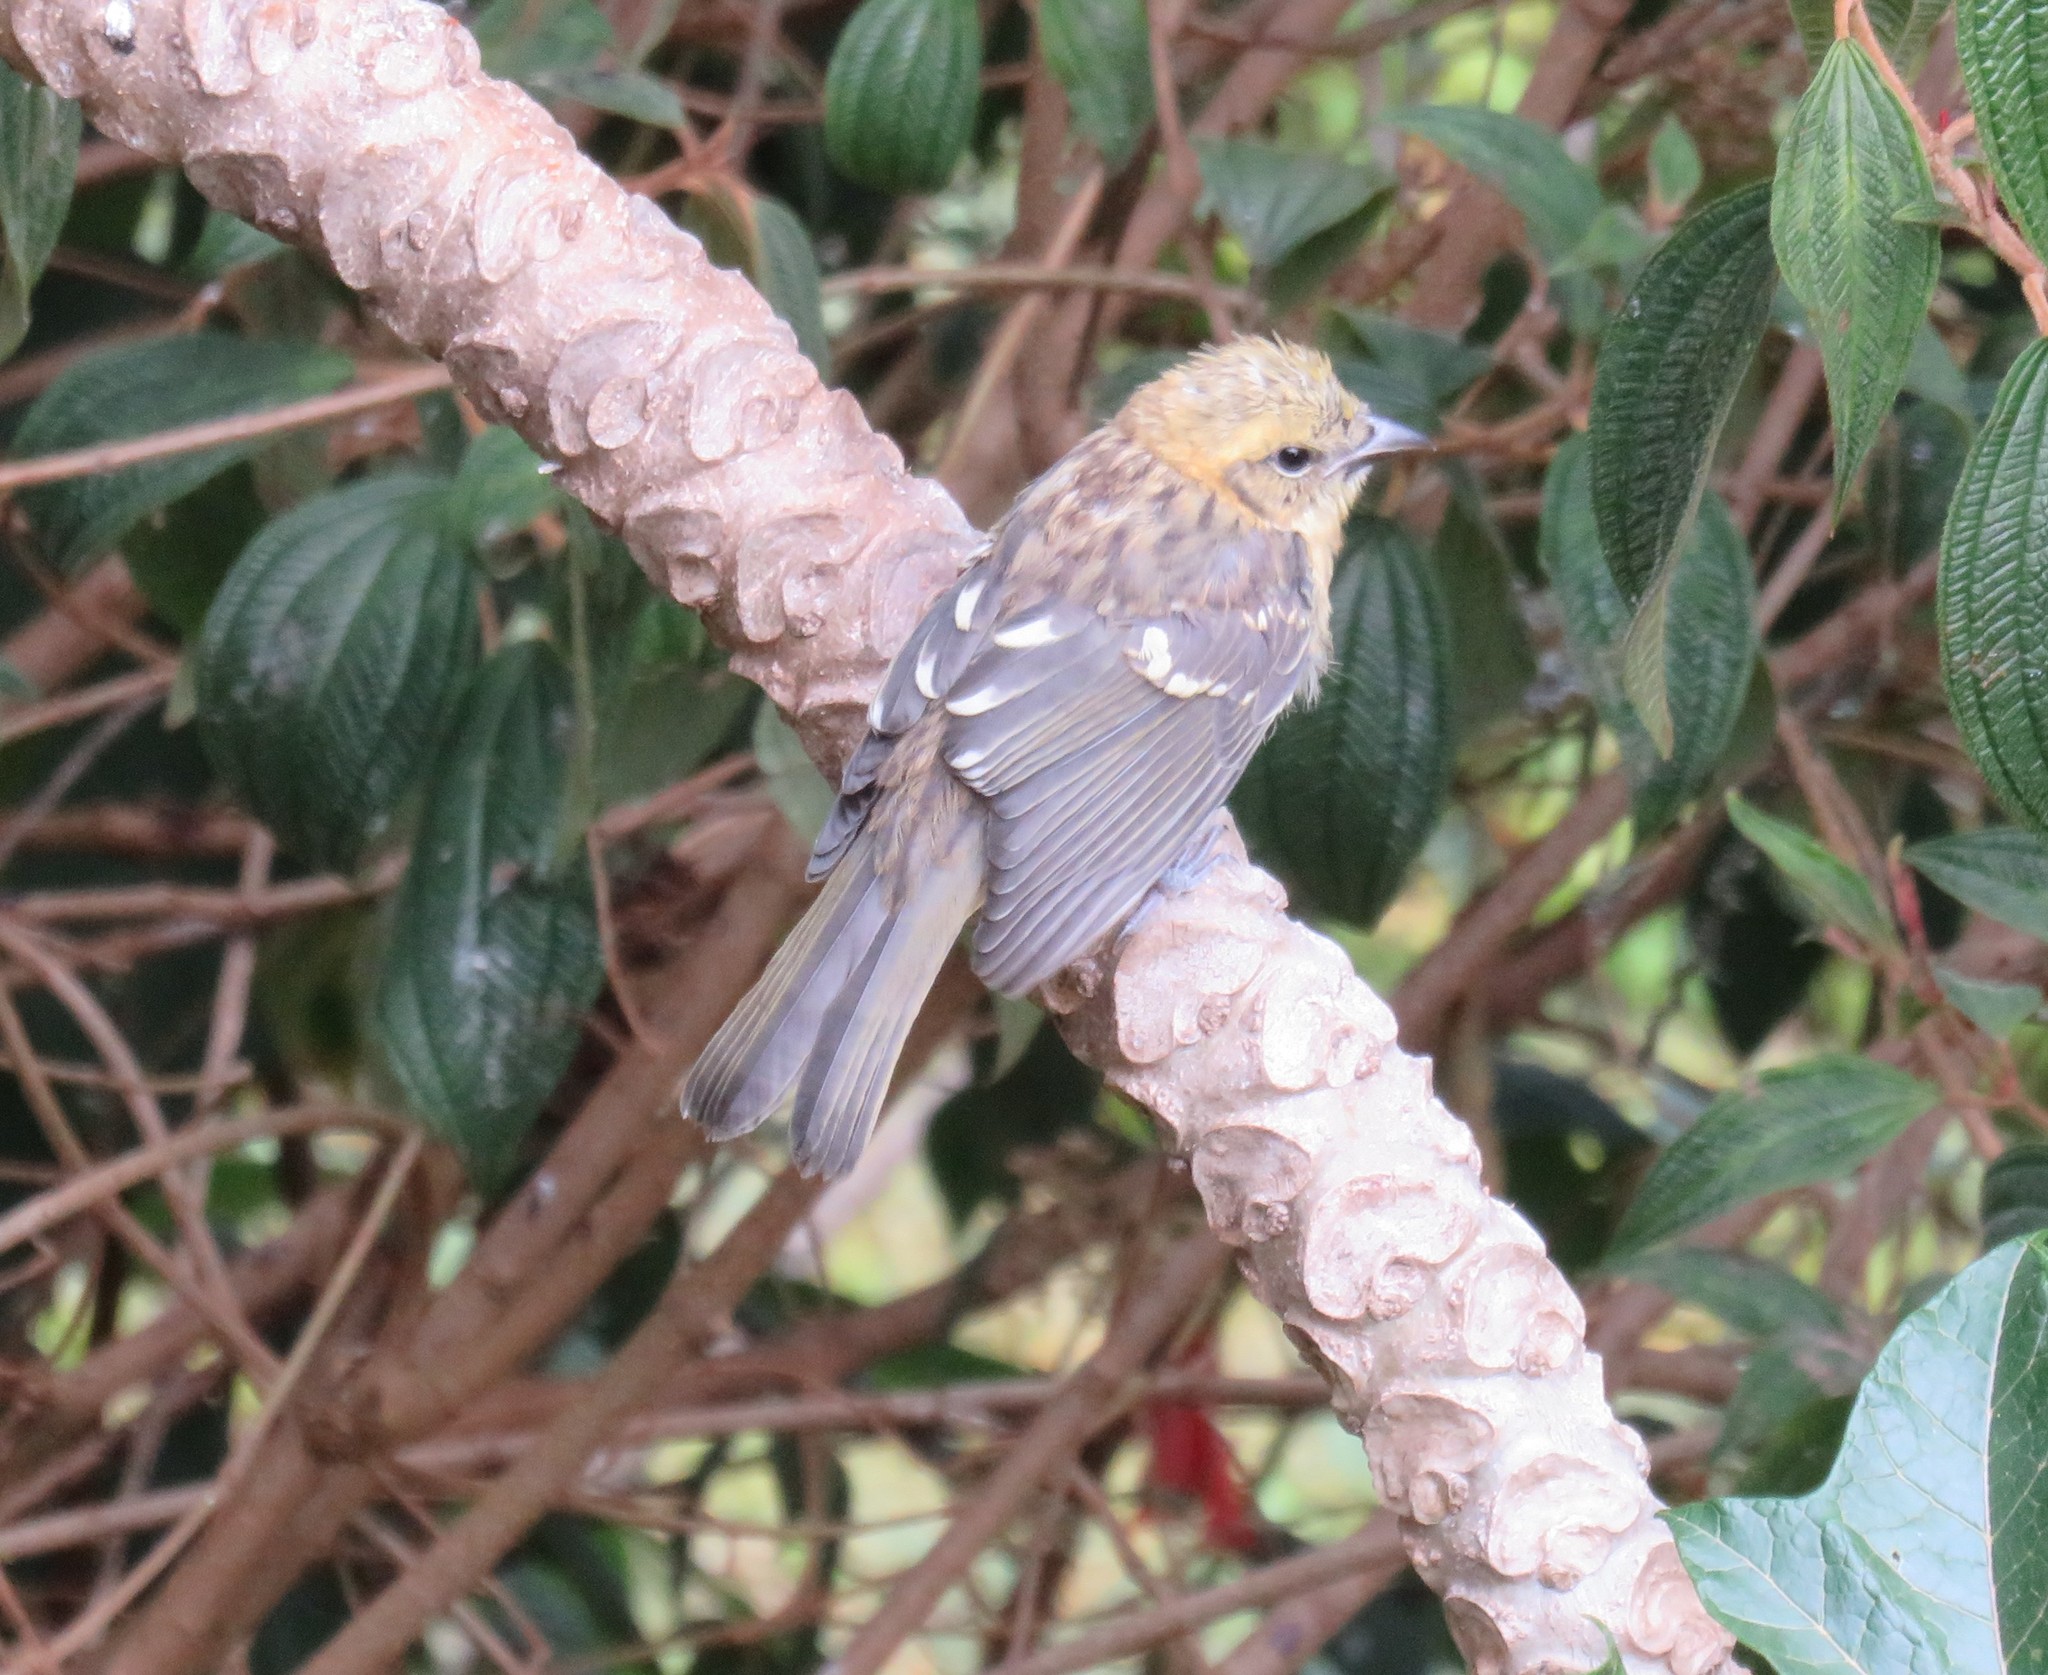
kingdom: Animalia
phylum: Chordata
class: Aves
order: Passeriformes
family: Cardinalidae
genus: Piranga
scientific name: Piranga bidentata
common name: Flame-colored tanager
